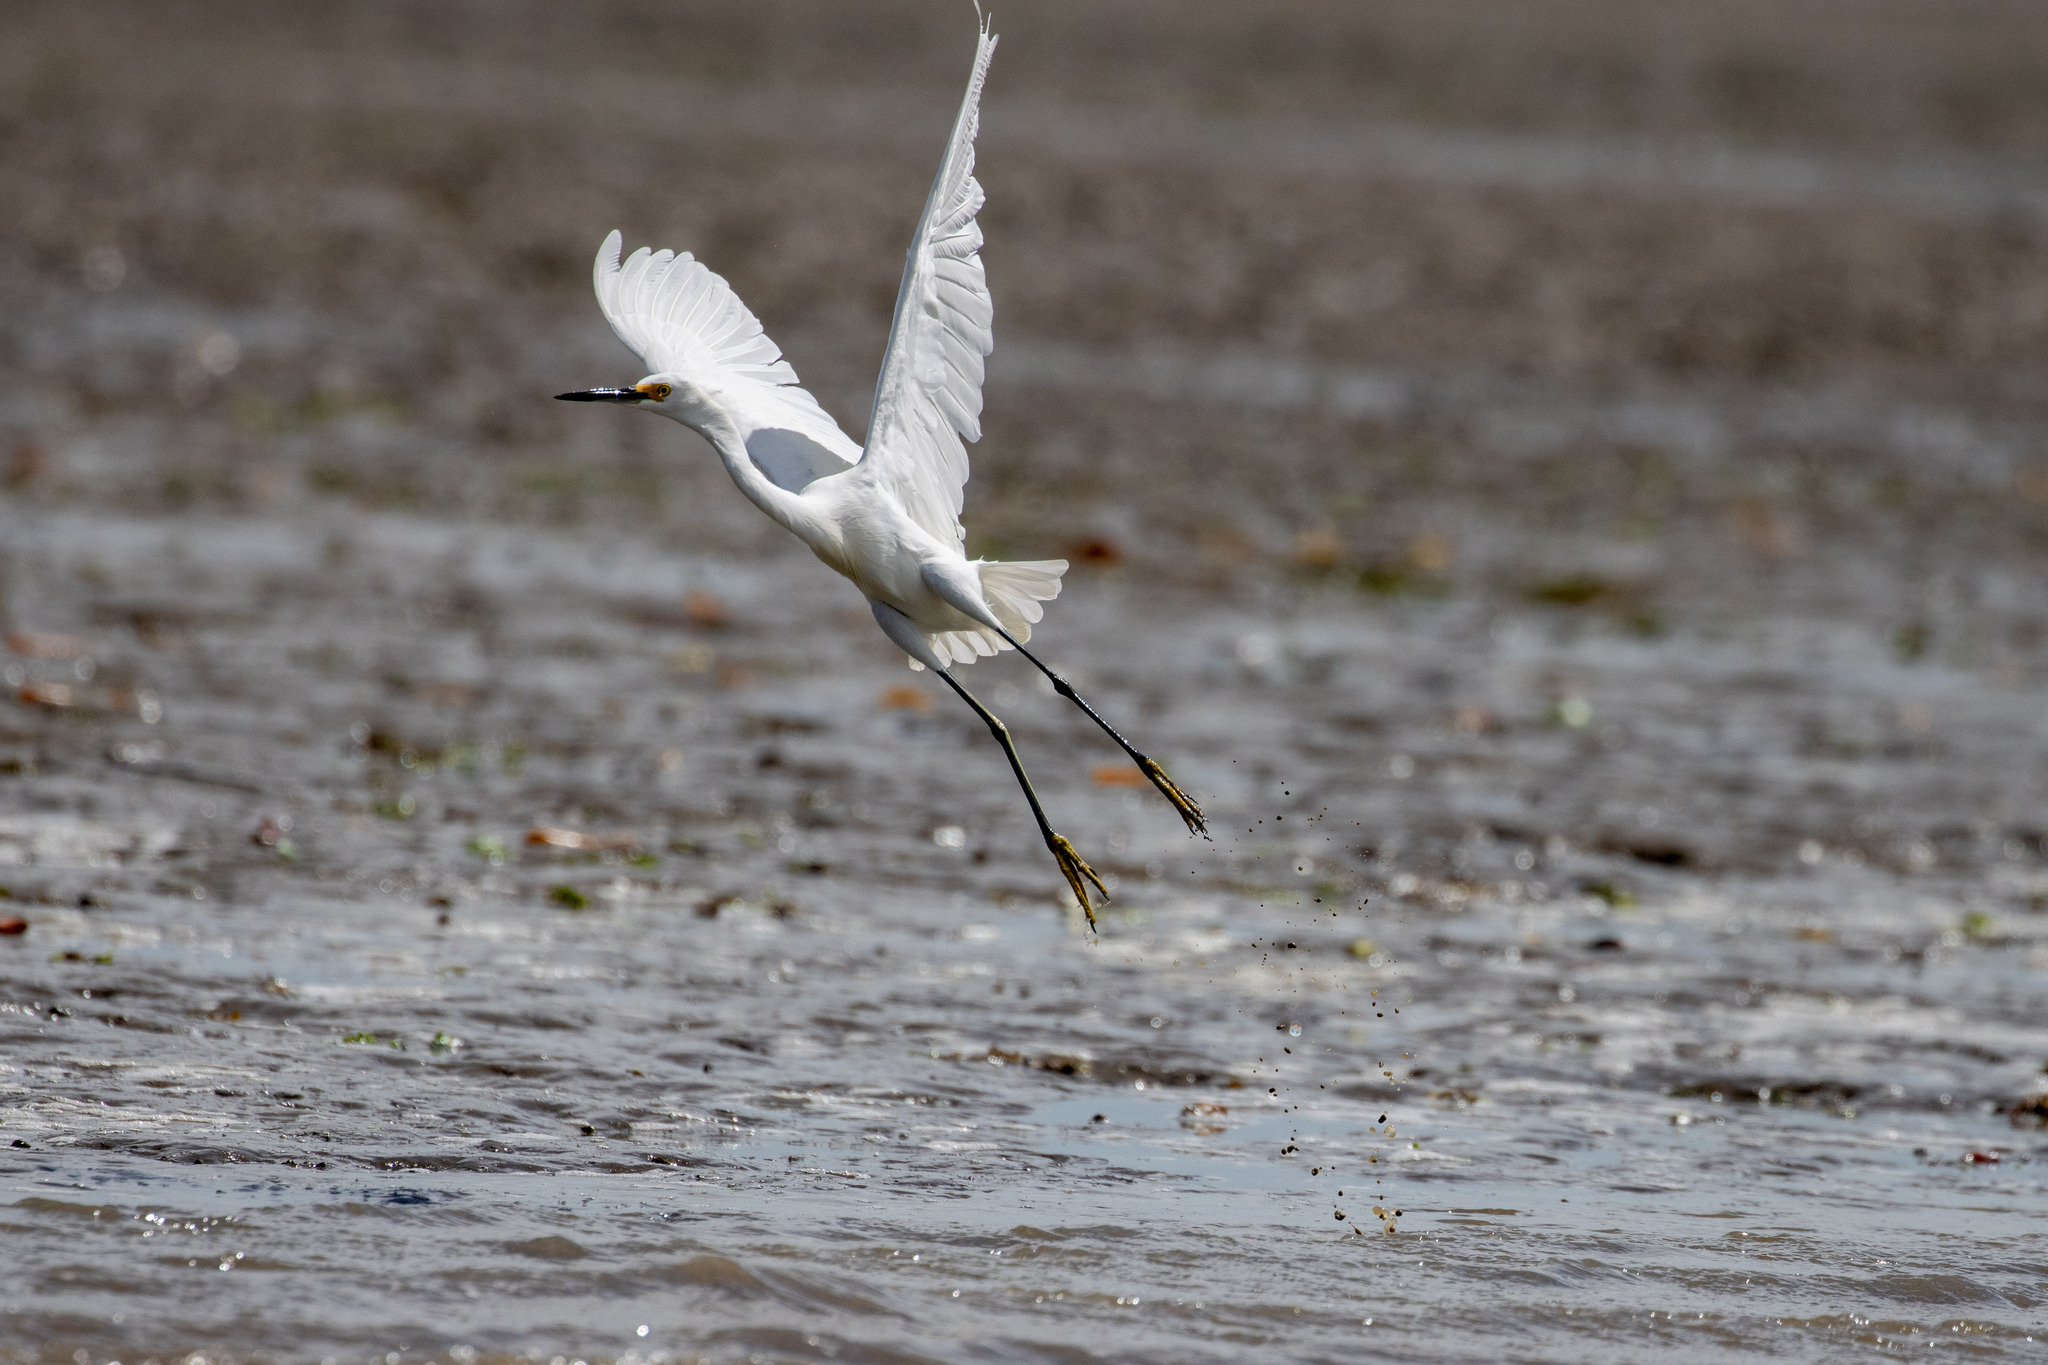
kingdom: Animalia
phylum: Chordata
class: Aves
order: Pelecaniformes
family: Ardeidae
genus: Egretta
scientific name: Egretta thula
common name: Snowy egret
